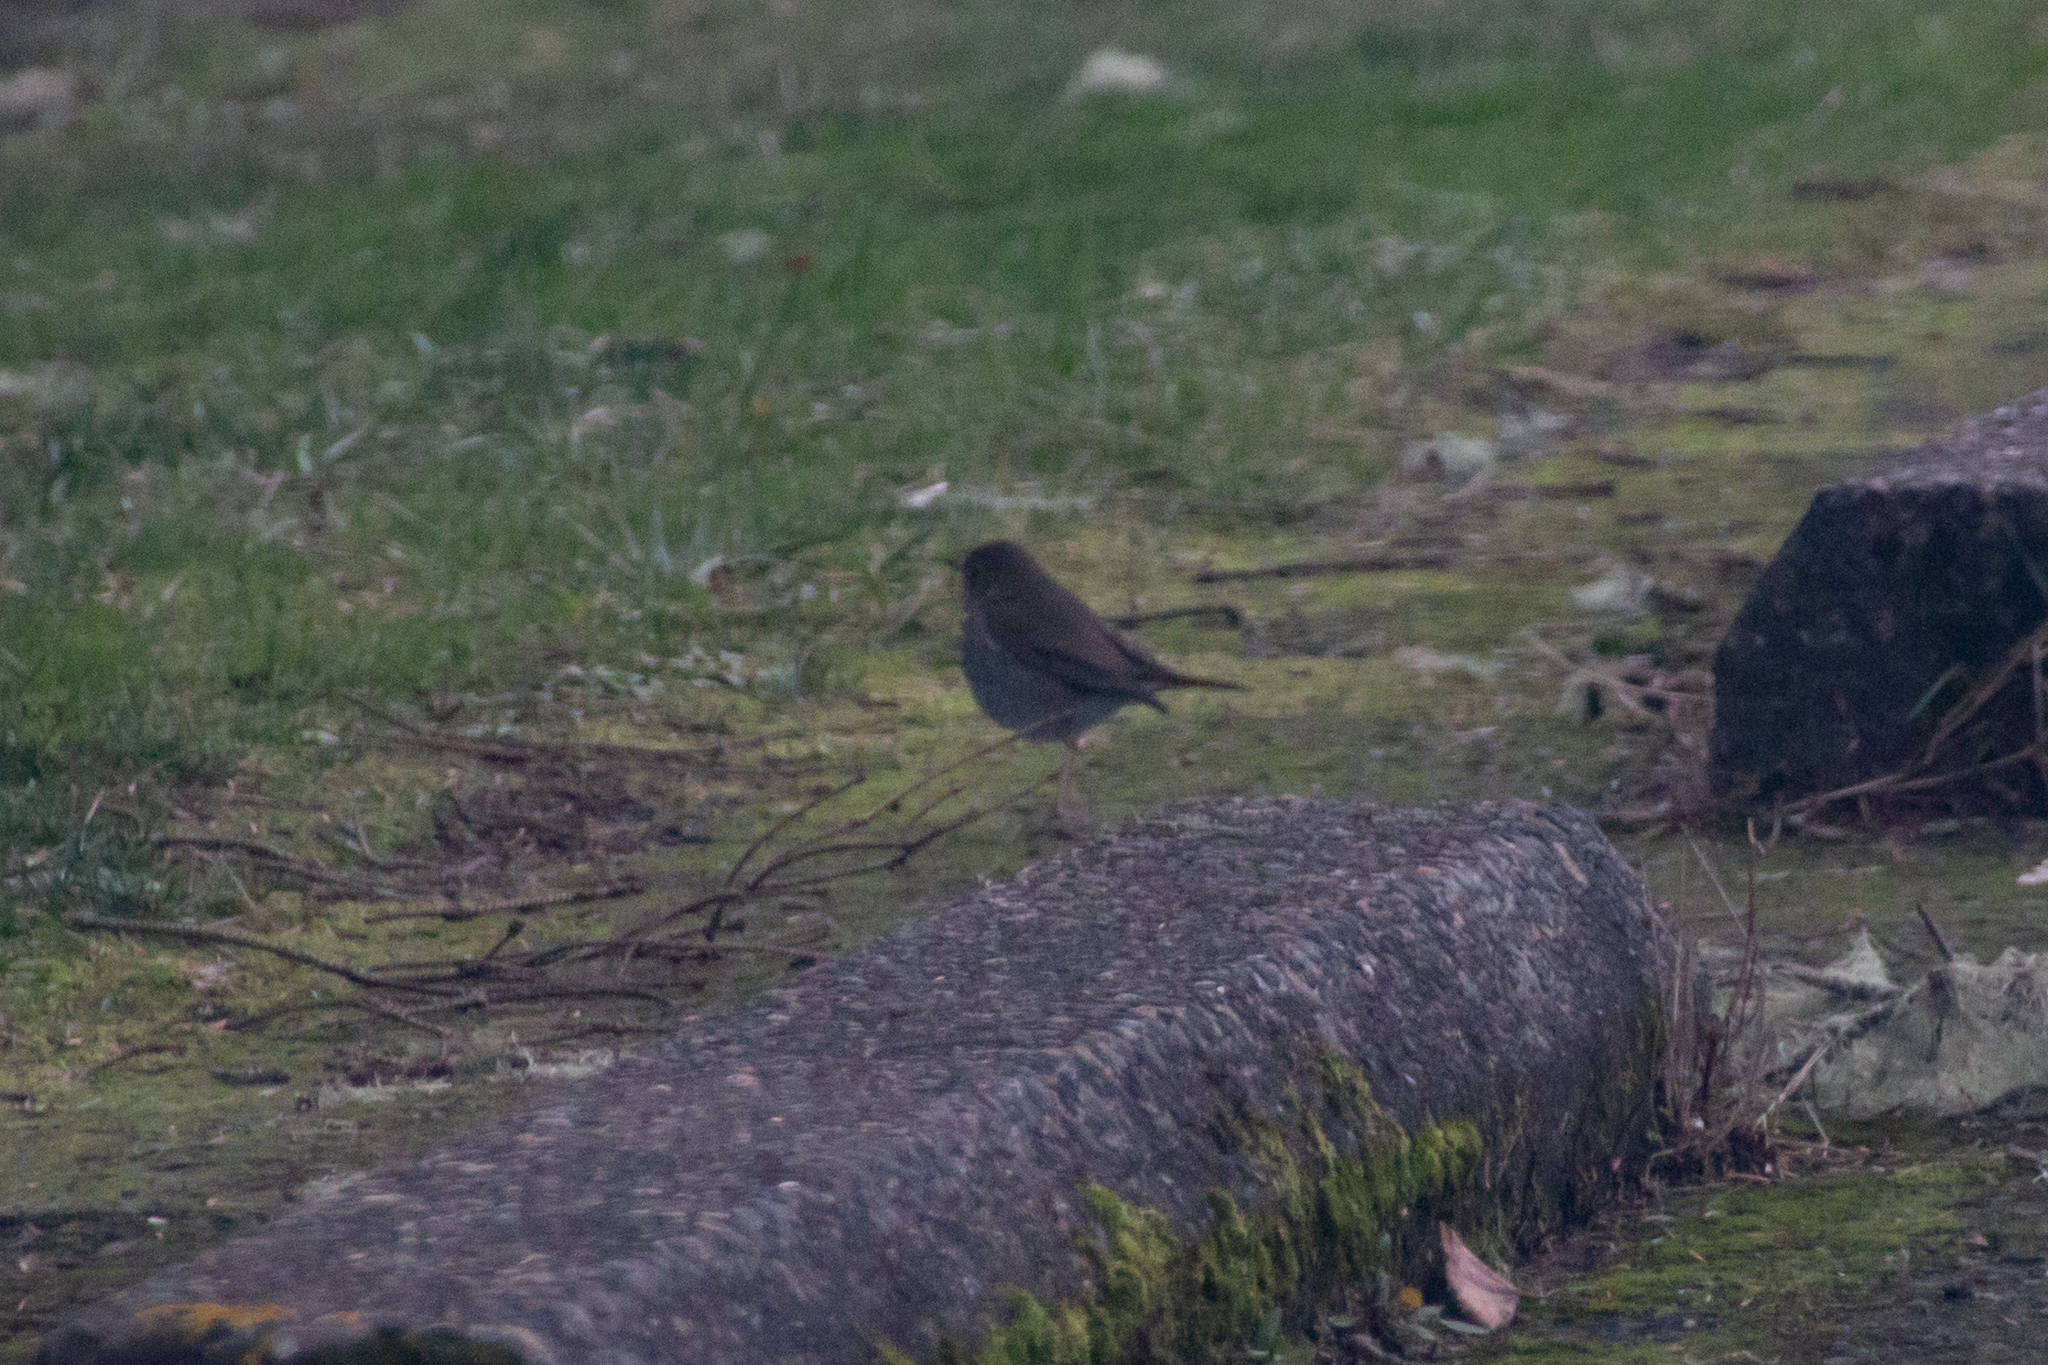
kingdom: Animalia
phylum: Chordata
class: Aves
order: Passeriformes
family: Turdidae
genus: Catharus
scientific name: Catharus guttatus
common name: Hermit thrush
